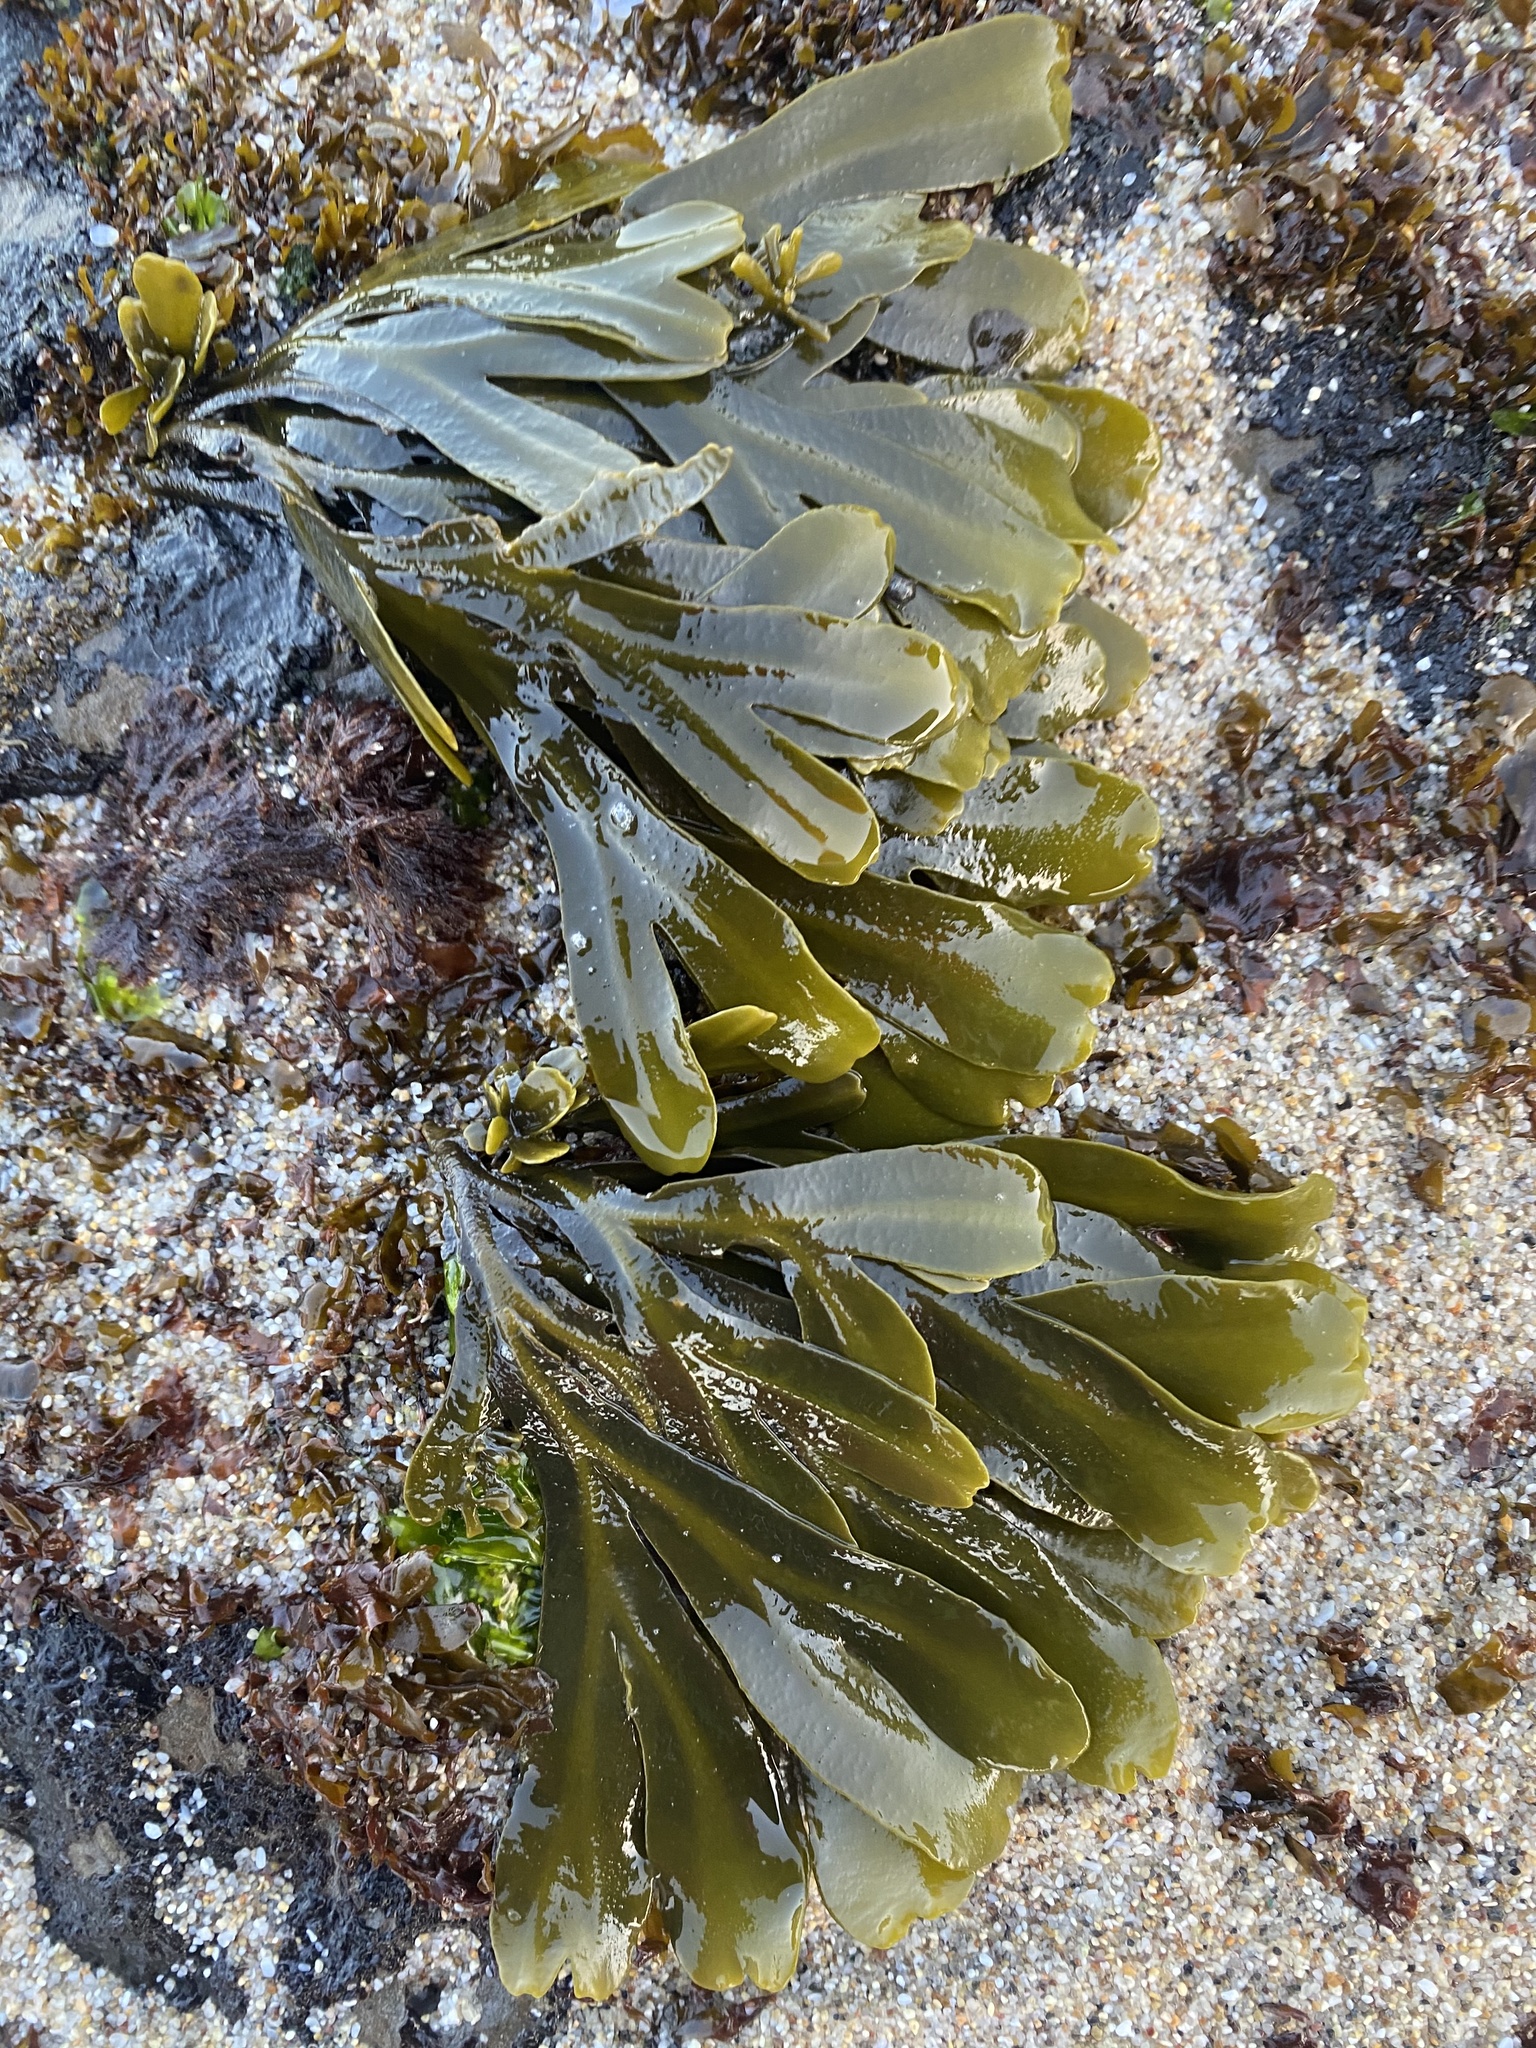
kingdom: Chromista
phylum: Ochrophyta
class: Phaeophyceae
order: Fucales
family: Fucaceae
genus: Fucus
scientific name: Fucus distichus
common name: Rockweed
